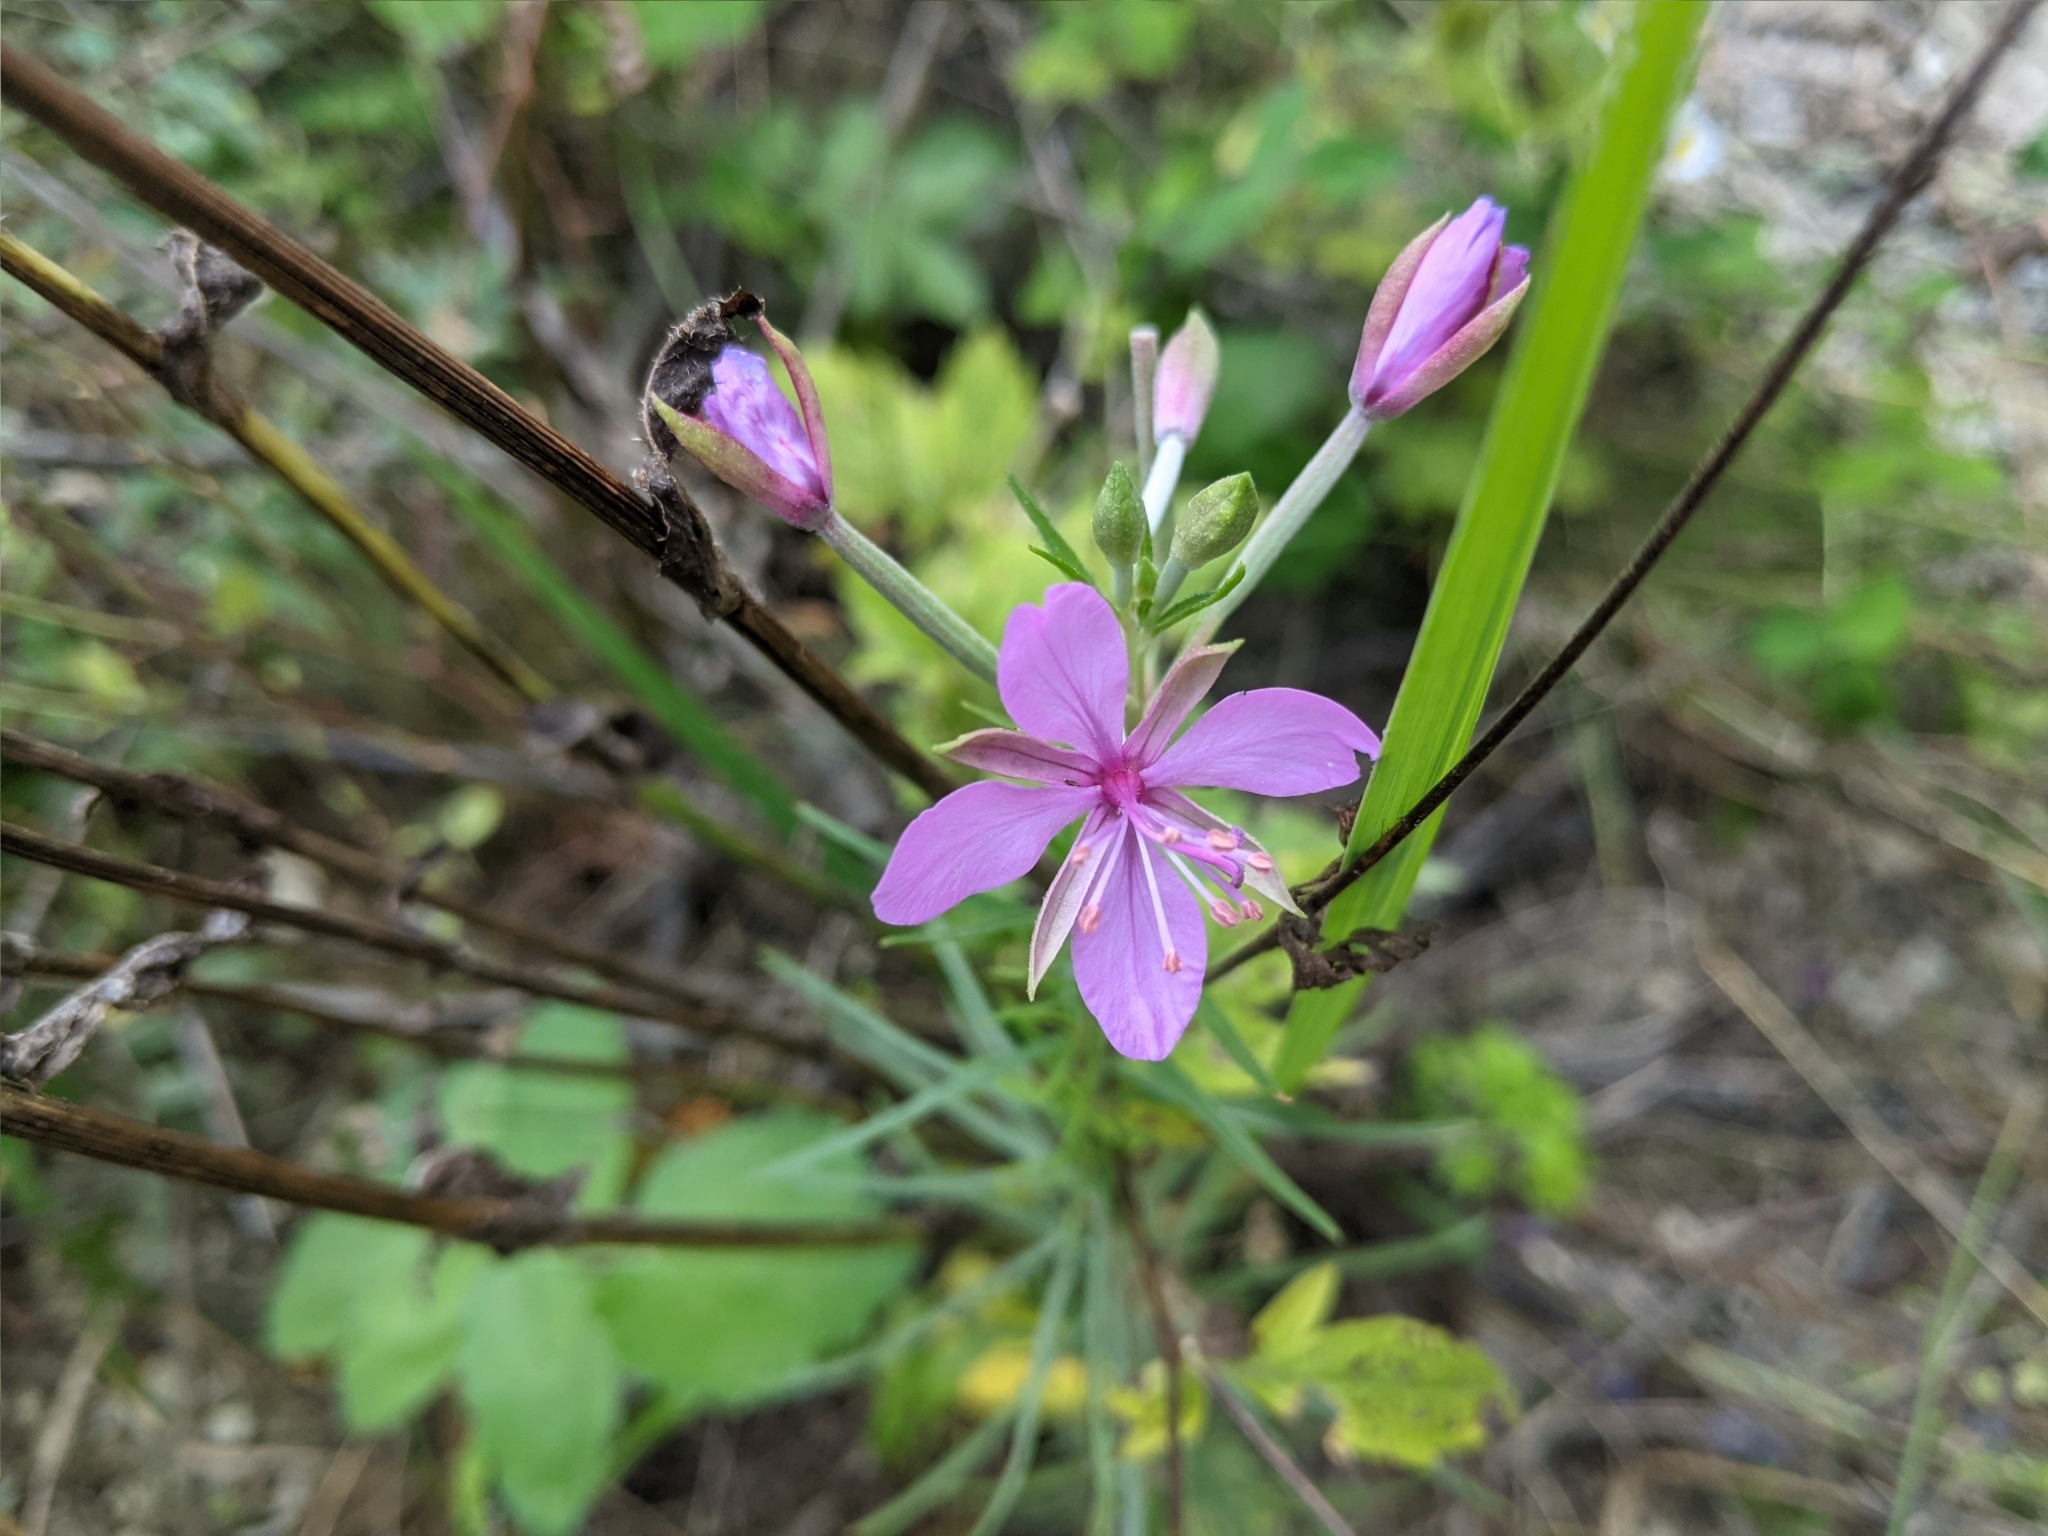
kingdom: Plantae
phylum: Tracheophyta
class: Magnoliopsida
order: Myrtales
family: Onagraceae
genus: Chamaenerion
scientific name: Chamaenerion angustifolium
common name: Fireweed
